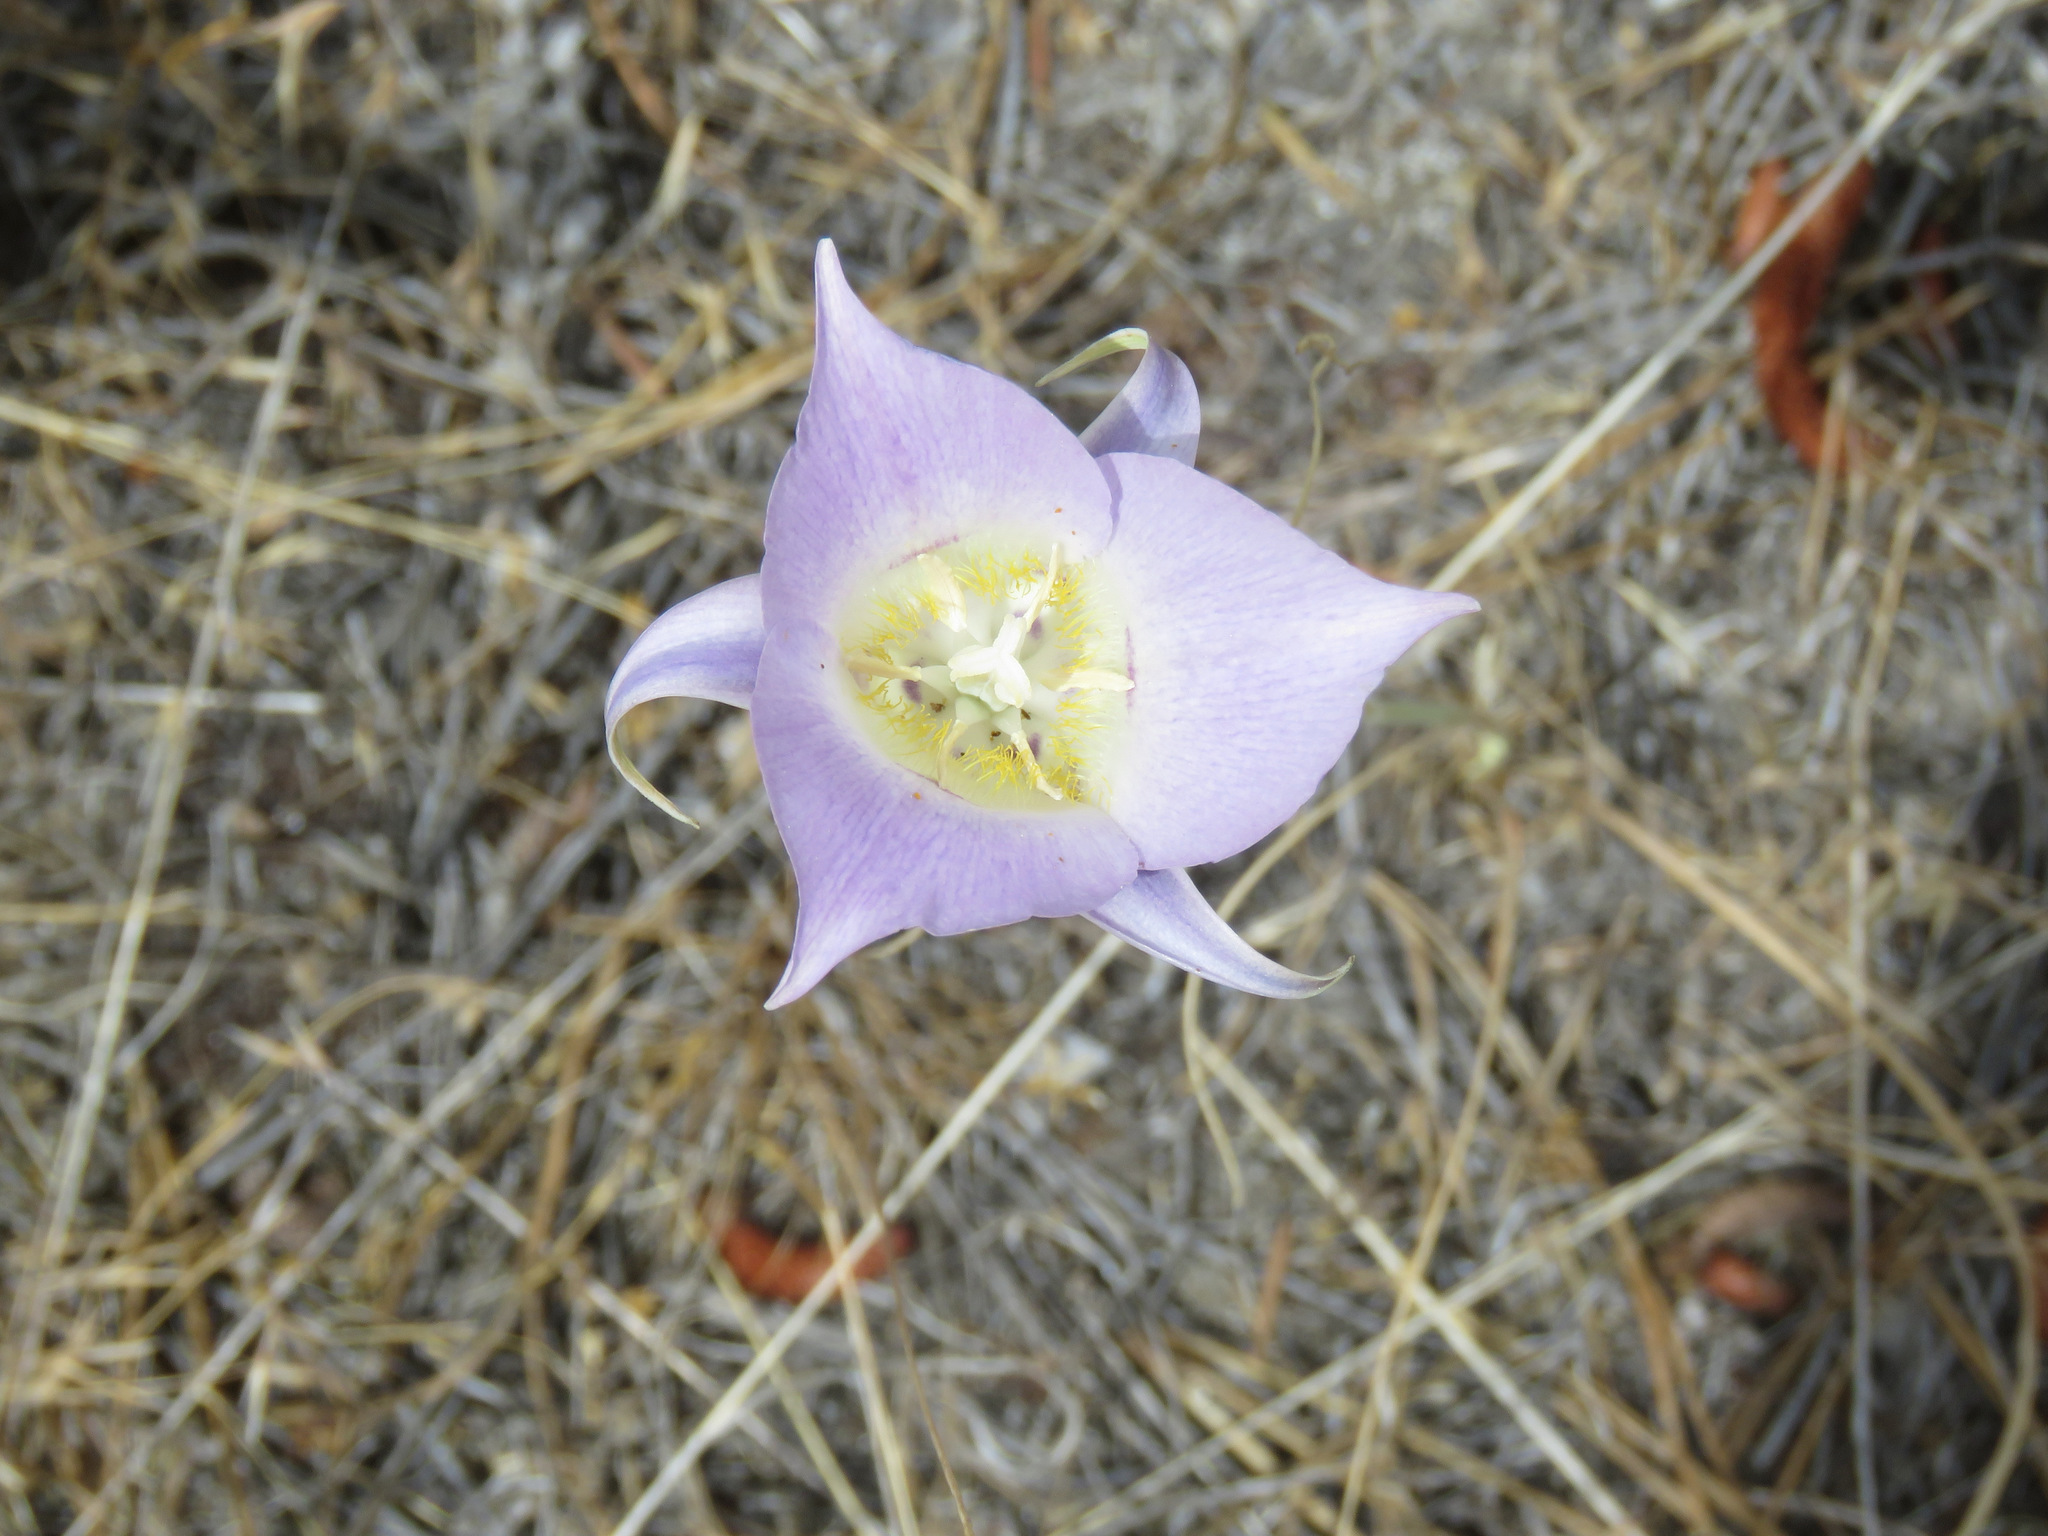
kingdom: Plantae
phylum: Tracheophyta
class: Liliopsida
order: Liliales
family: Liliaceae
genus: Calochortus
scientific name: Calochortus macrocarpus
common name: Green-band mariposa lily
